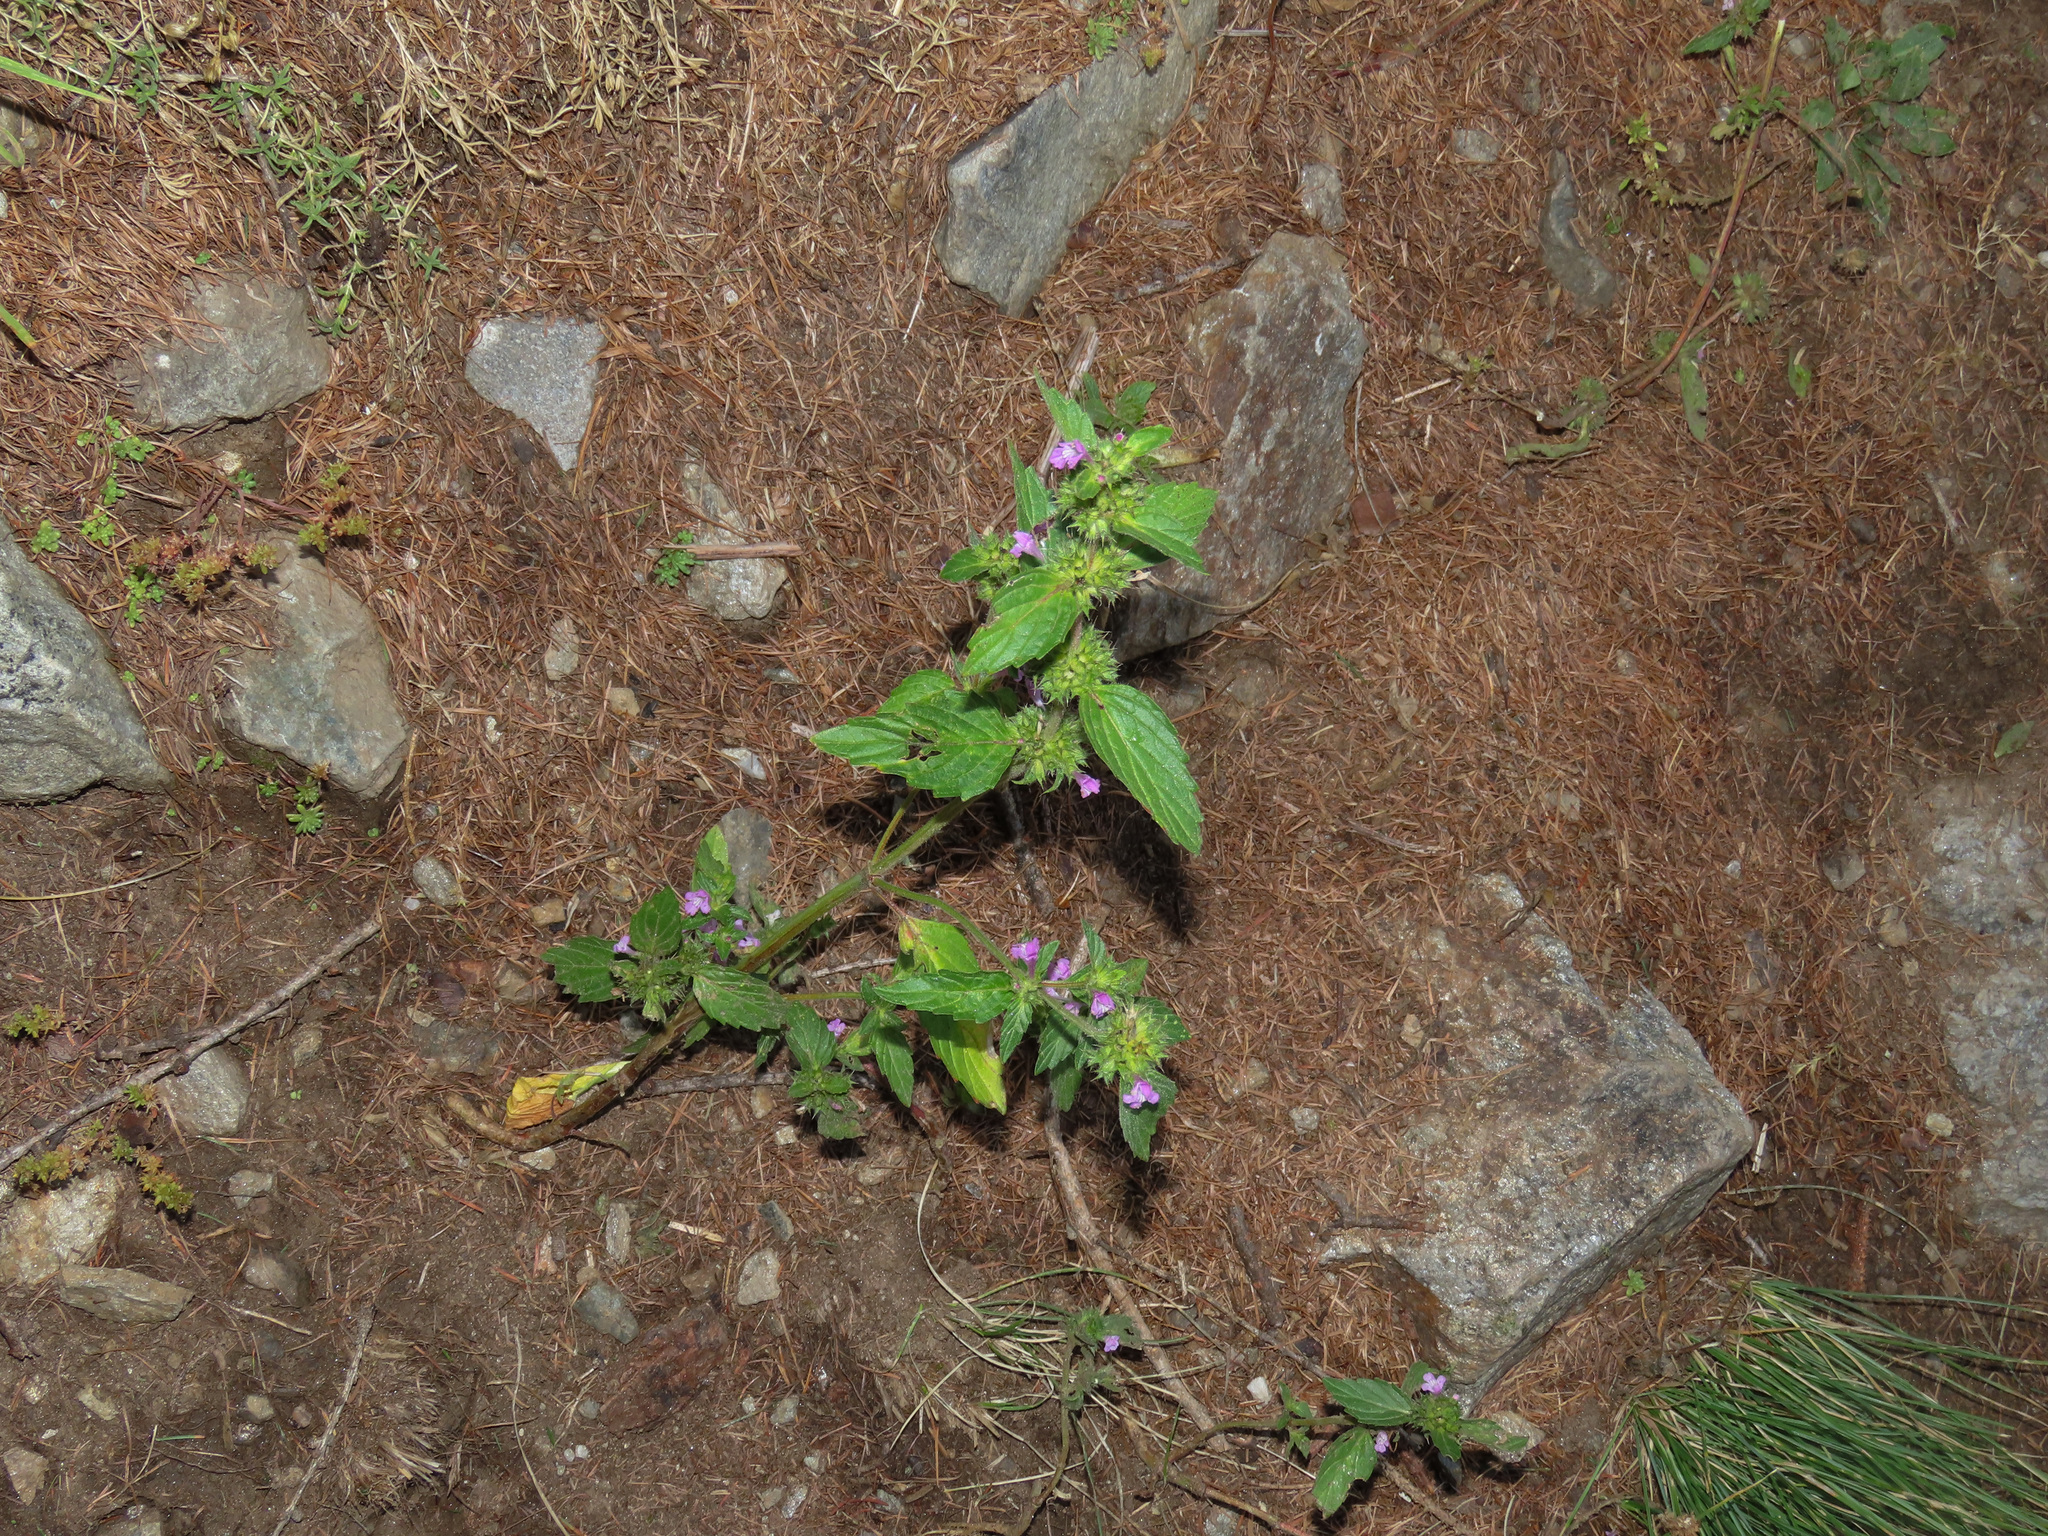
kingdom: Plantae
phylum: Tracheophyta
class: Magnoliopsida
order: Lamiales
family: Lamiaceae
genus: Galeopsis
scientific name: Galeopsis tetrahit
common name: Common hemp-nettle
